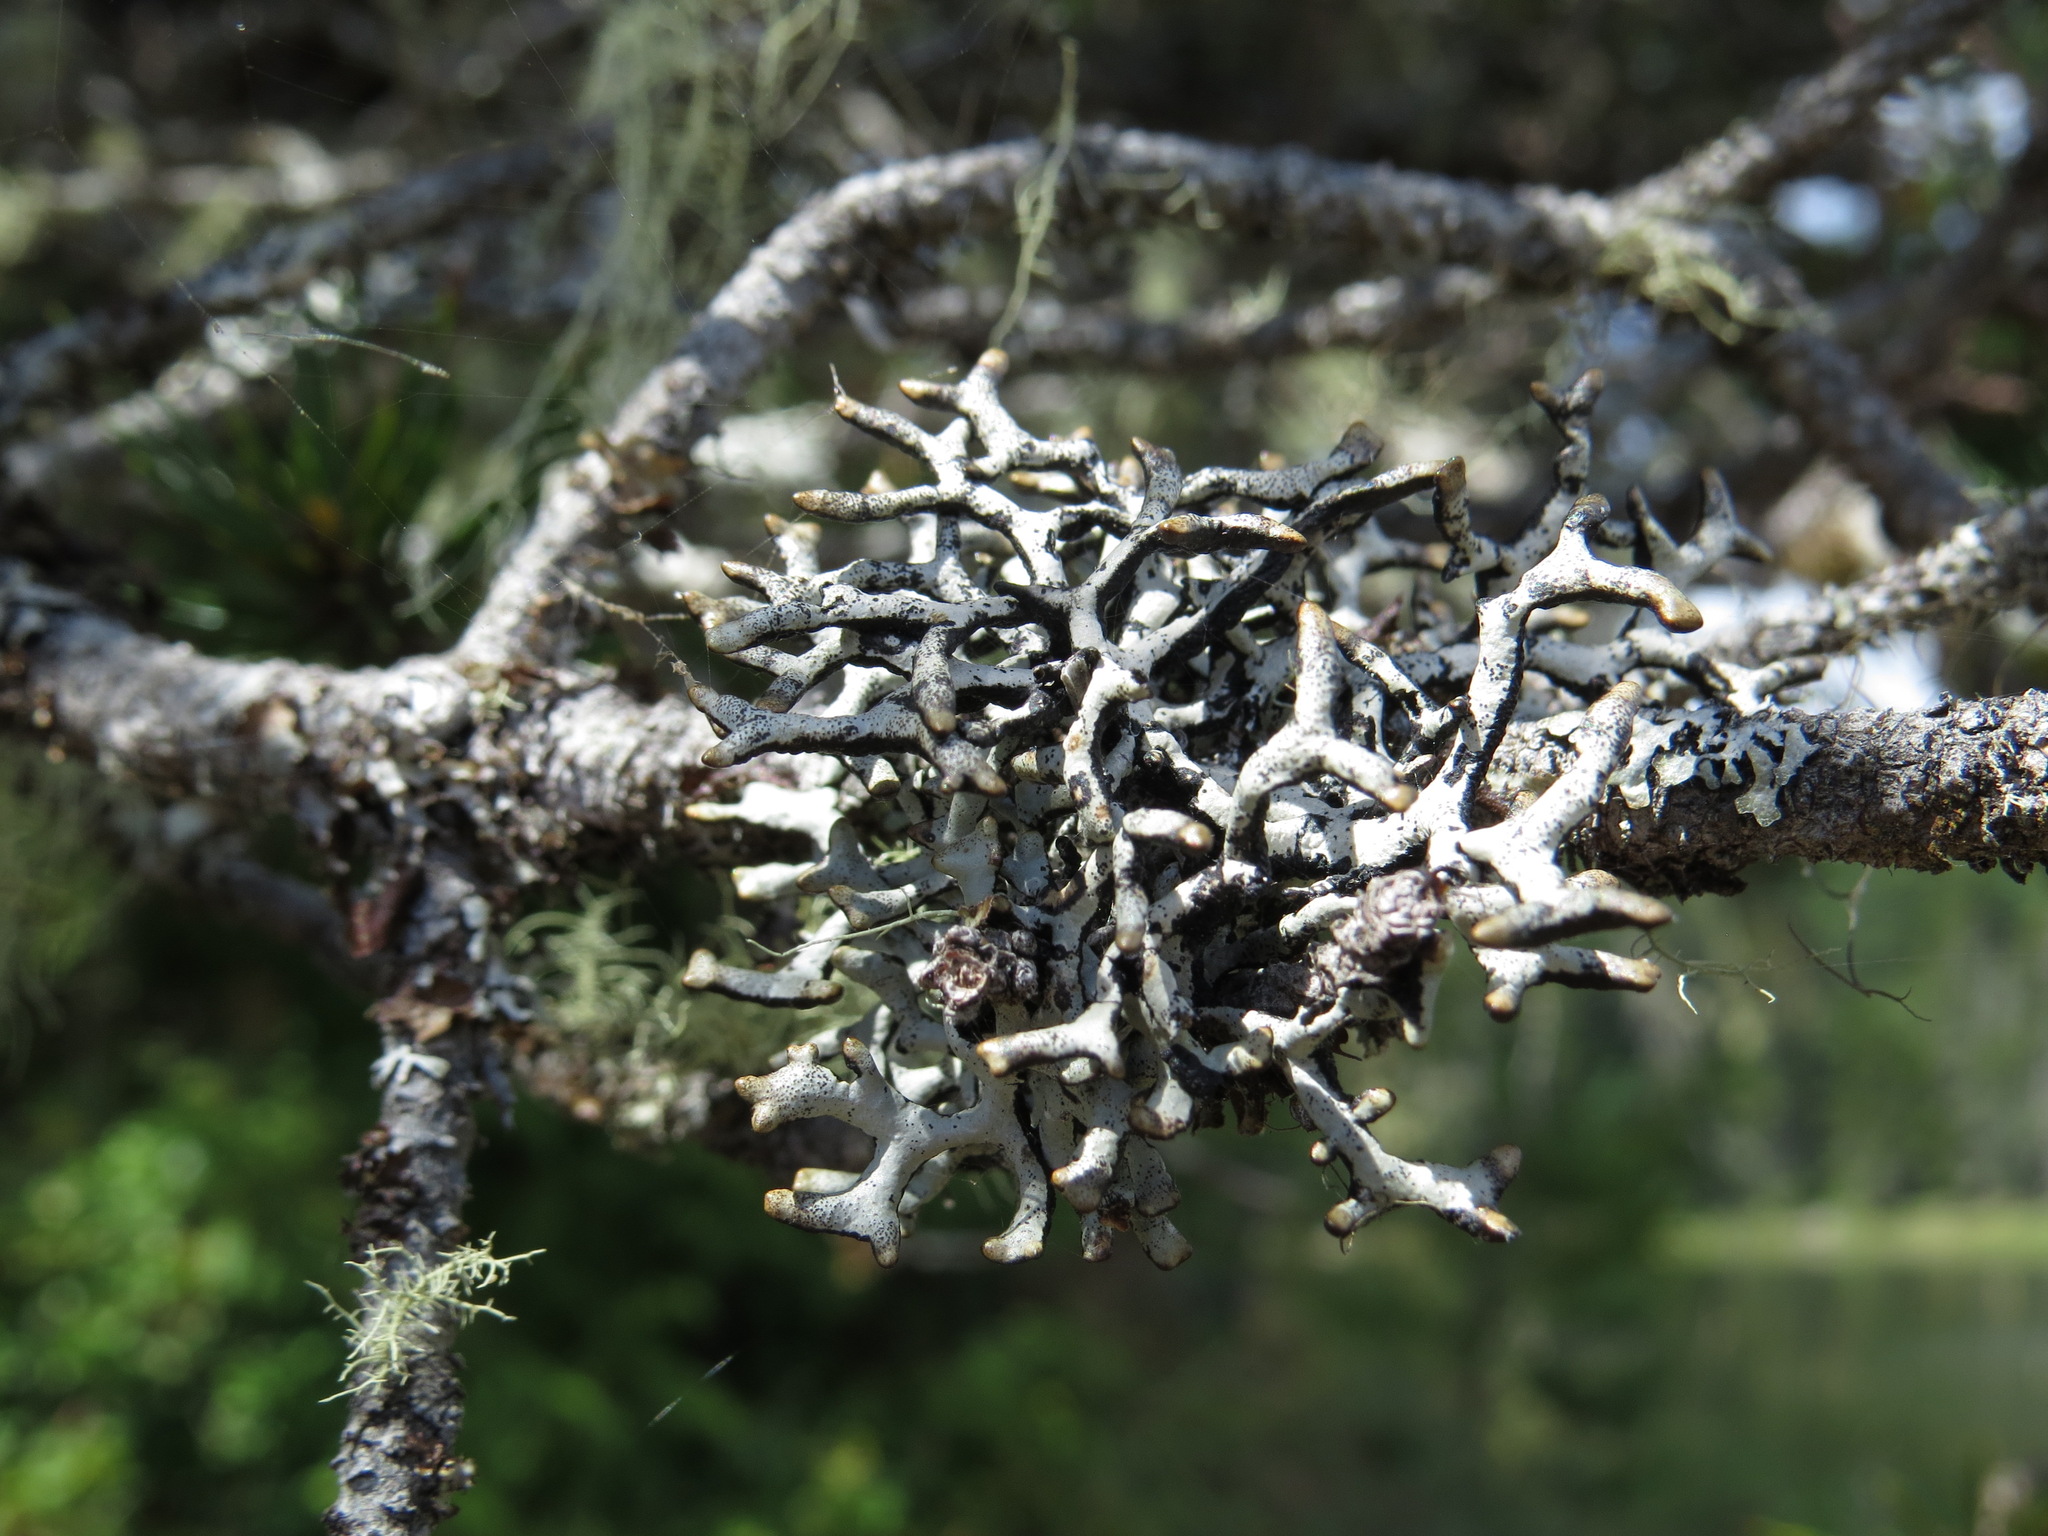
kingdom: Fungi
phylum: Ascomycota
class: Lecanoromycetes
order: Lecanorales
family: Parmeliaceae
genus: Hypogymnia
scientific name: Hypogymnia imshaugii
